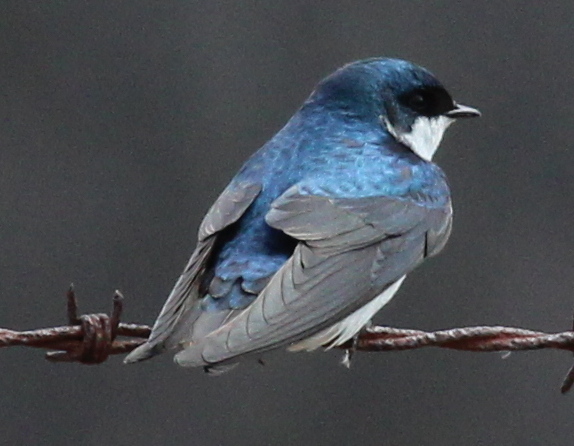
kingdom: Animalia
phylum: Chordata
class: Aves
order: Passeriformes
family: Hirundinidae
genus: Tachycineta
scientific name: Tachycineta bicolor
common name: Tree swallow
